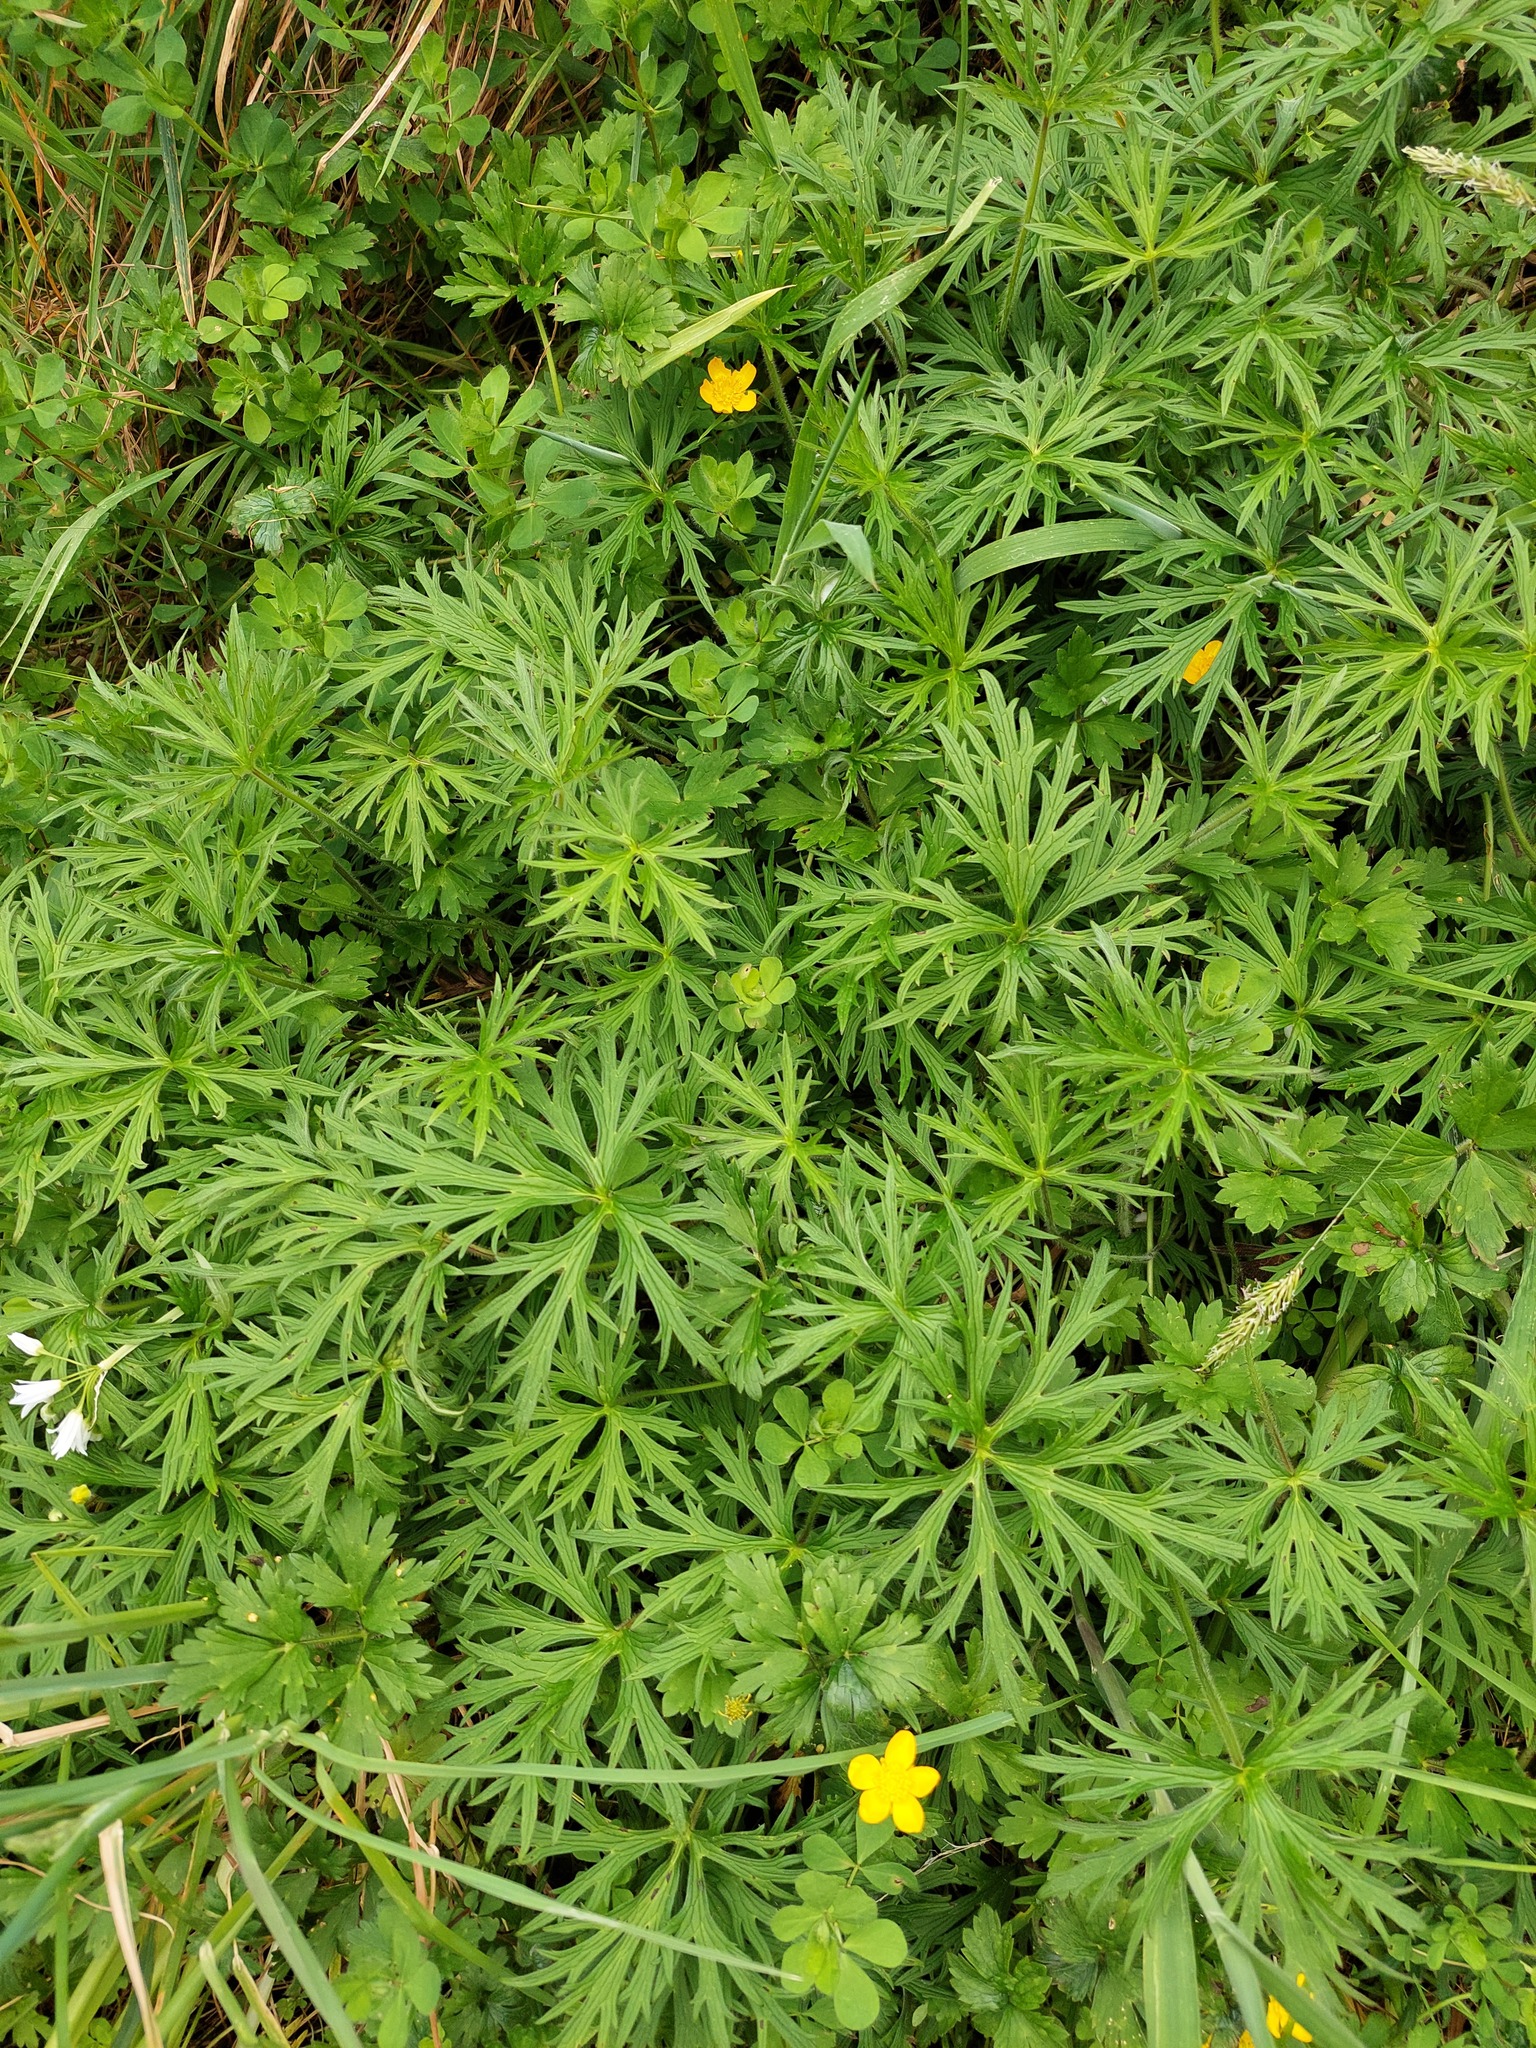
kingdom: Plantae
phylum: Tracheophyta
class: Magnoliopsida
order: Ranunculales
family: Ranunculaceae
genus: Ranunculus
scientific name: Ranunculus acris
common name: Meadow buttercup
